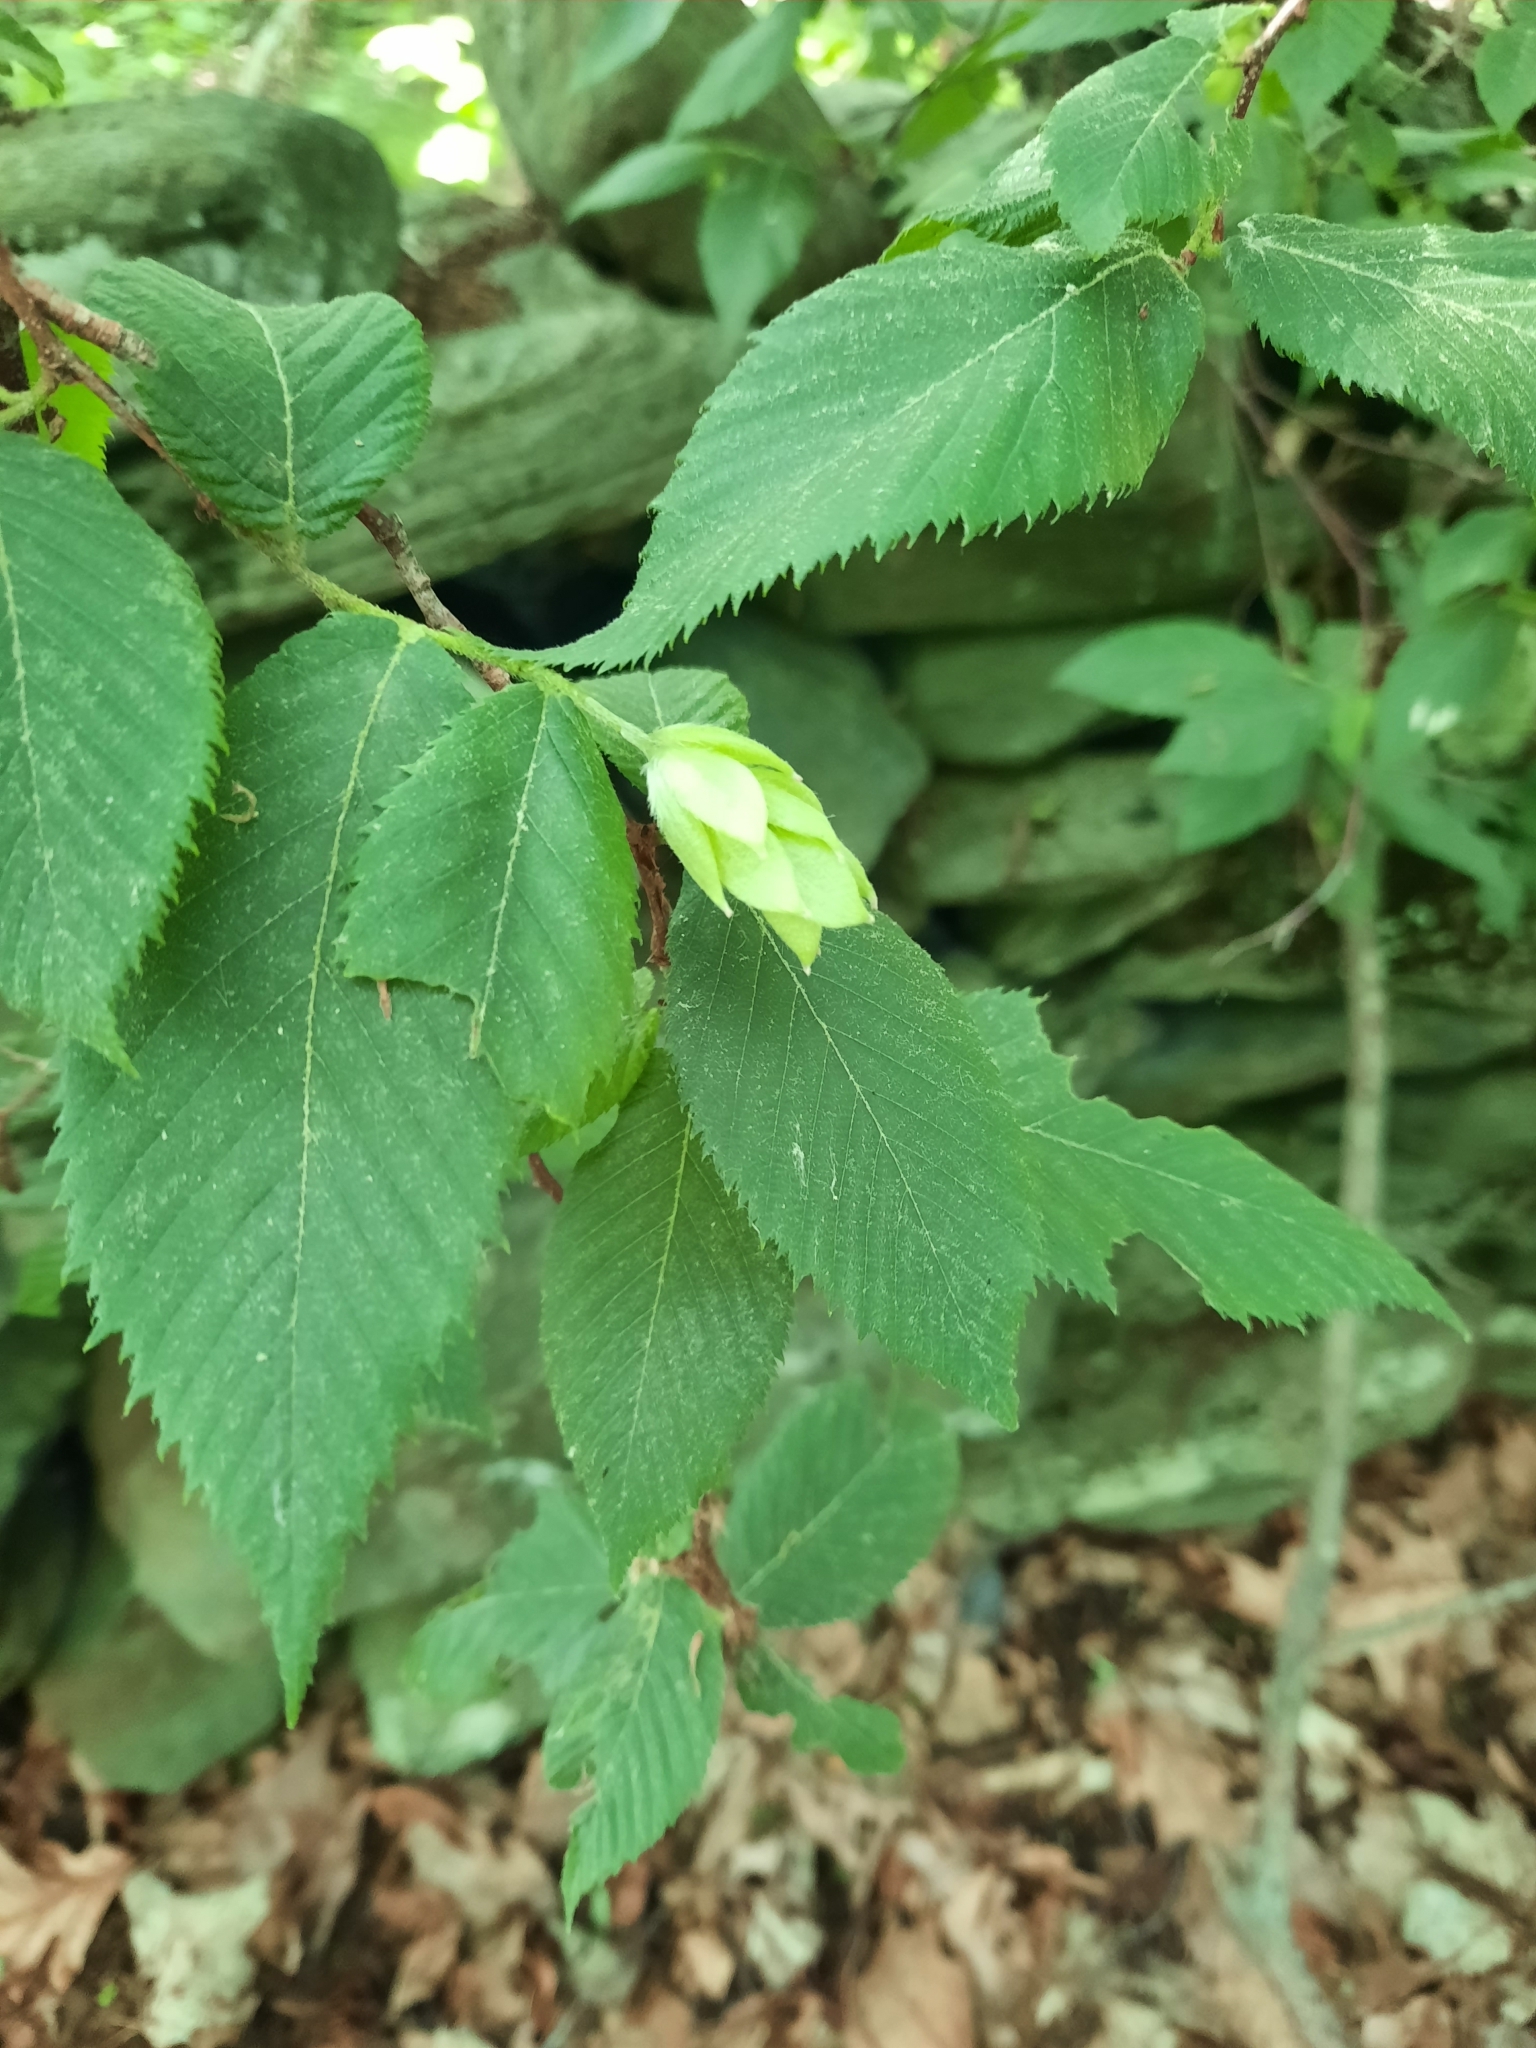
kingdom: Plantae
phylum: Tracheophyta
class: Magnoliopsida
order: Fagales
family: Betulaceae
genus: Ostrya
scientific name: Ostrya virginiana
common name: Ironwood
